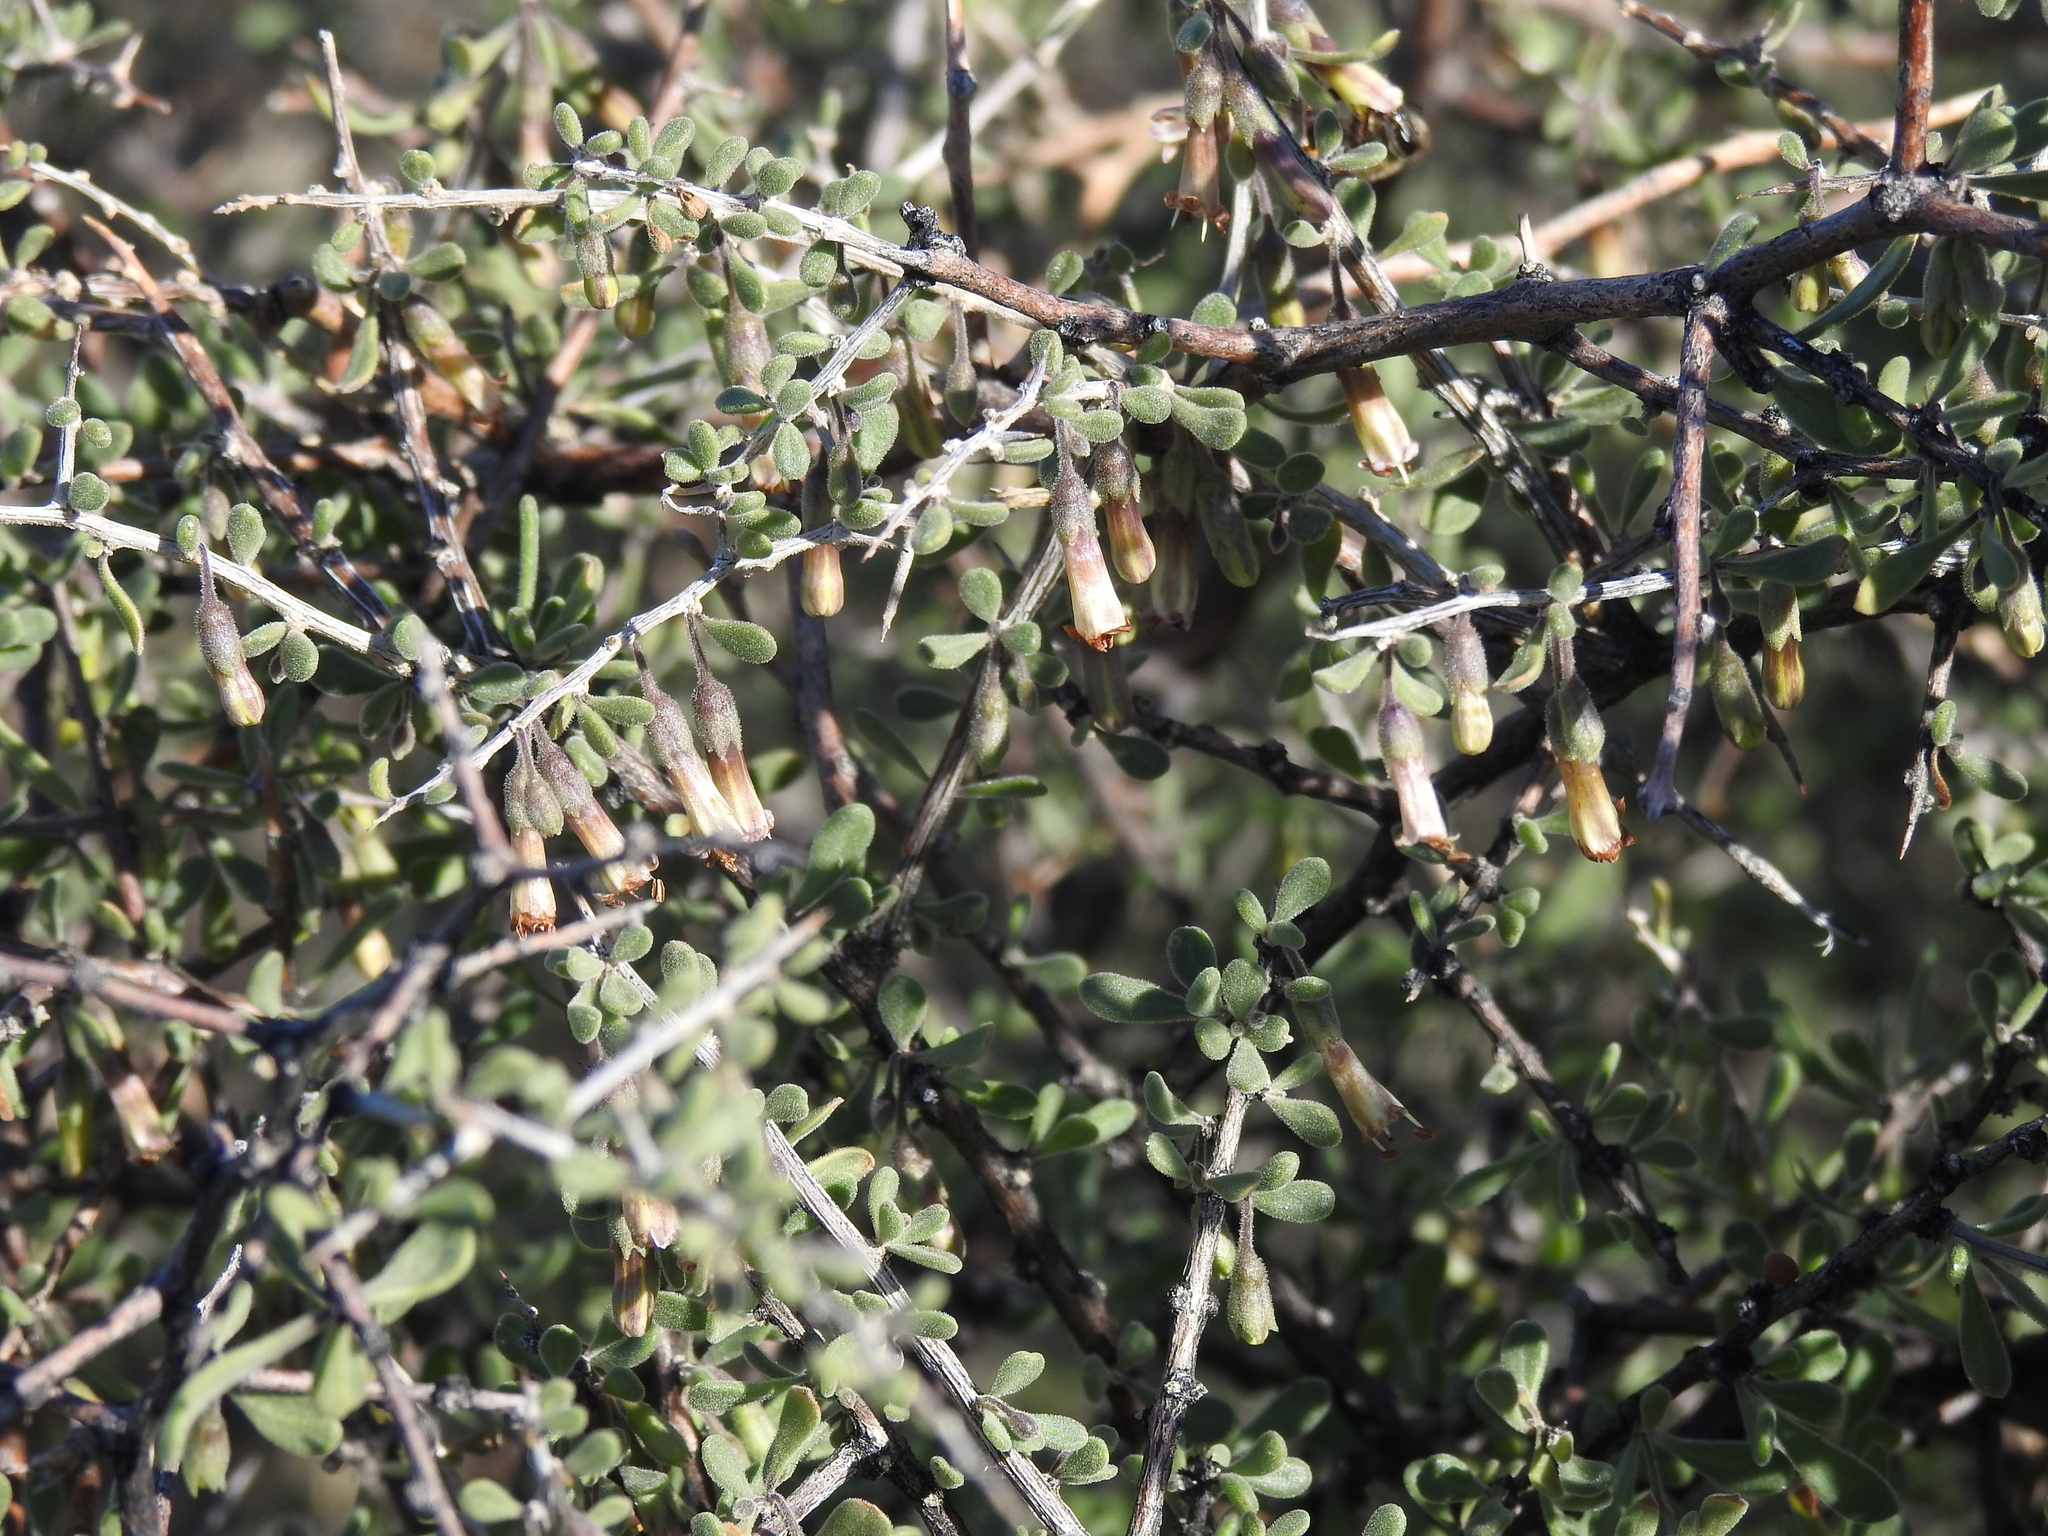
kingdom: Plantae
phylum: Tracheophyta
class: Magnoliopsida
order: Solanales
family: Solanaceae
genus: Lycium
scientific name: Lycium exsertum
